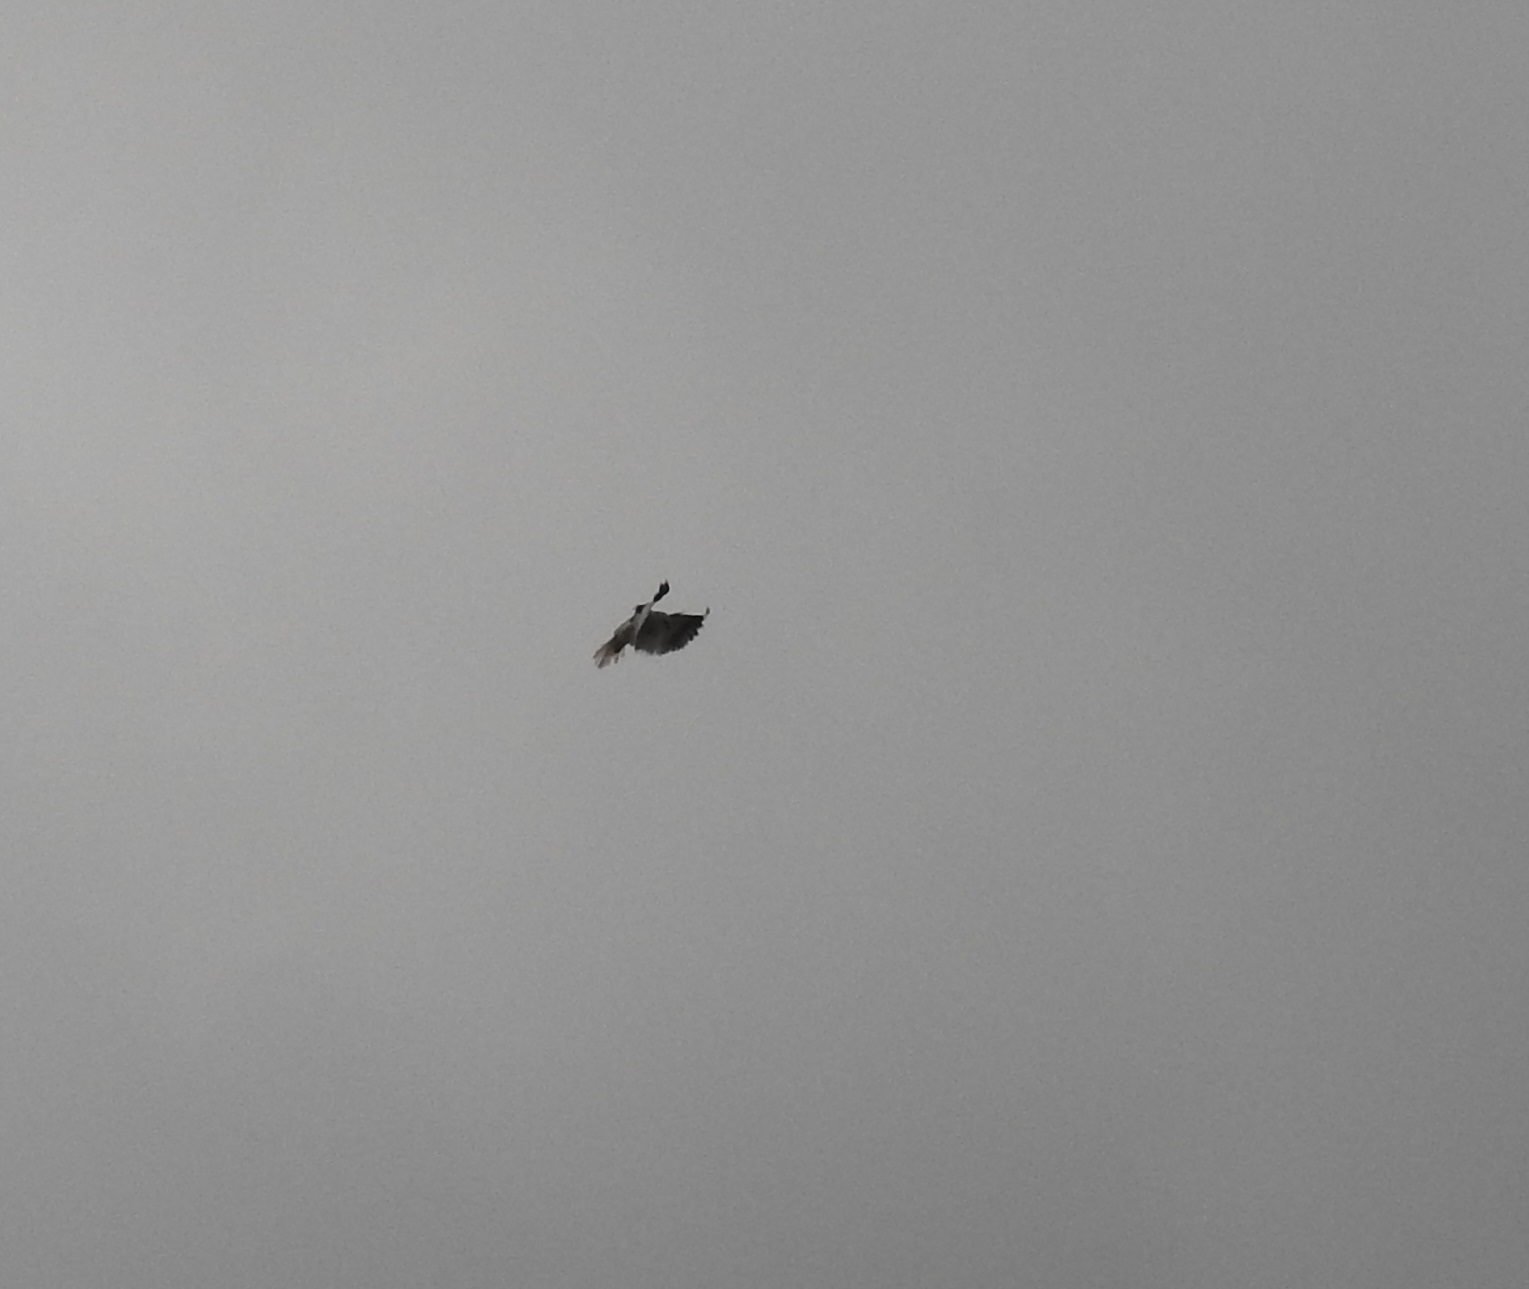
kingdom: Animalia
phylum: Chordata
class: Aves
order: Accipitriformes
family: Accipitridae
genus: Elanus
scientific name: Elanus caeruleus
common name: Black-winged kite
